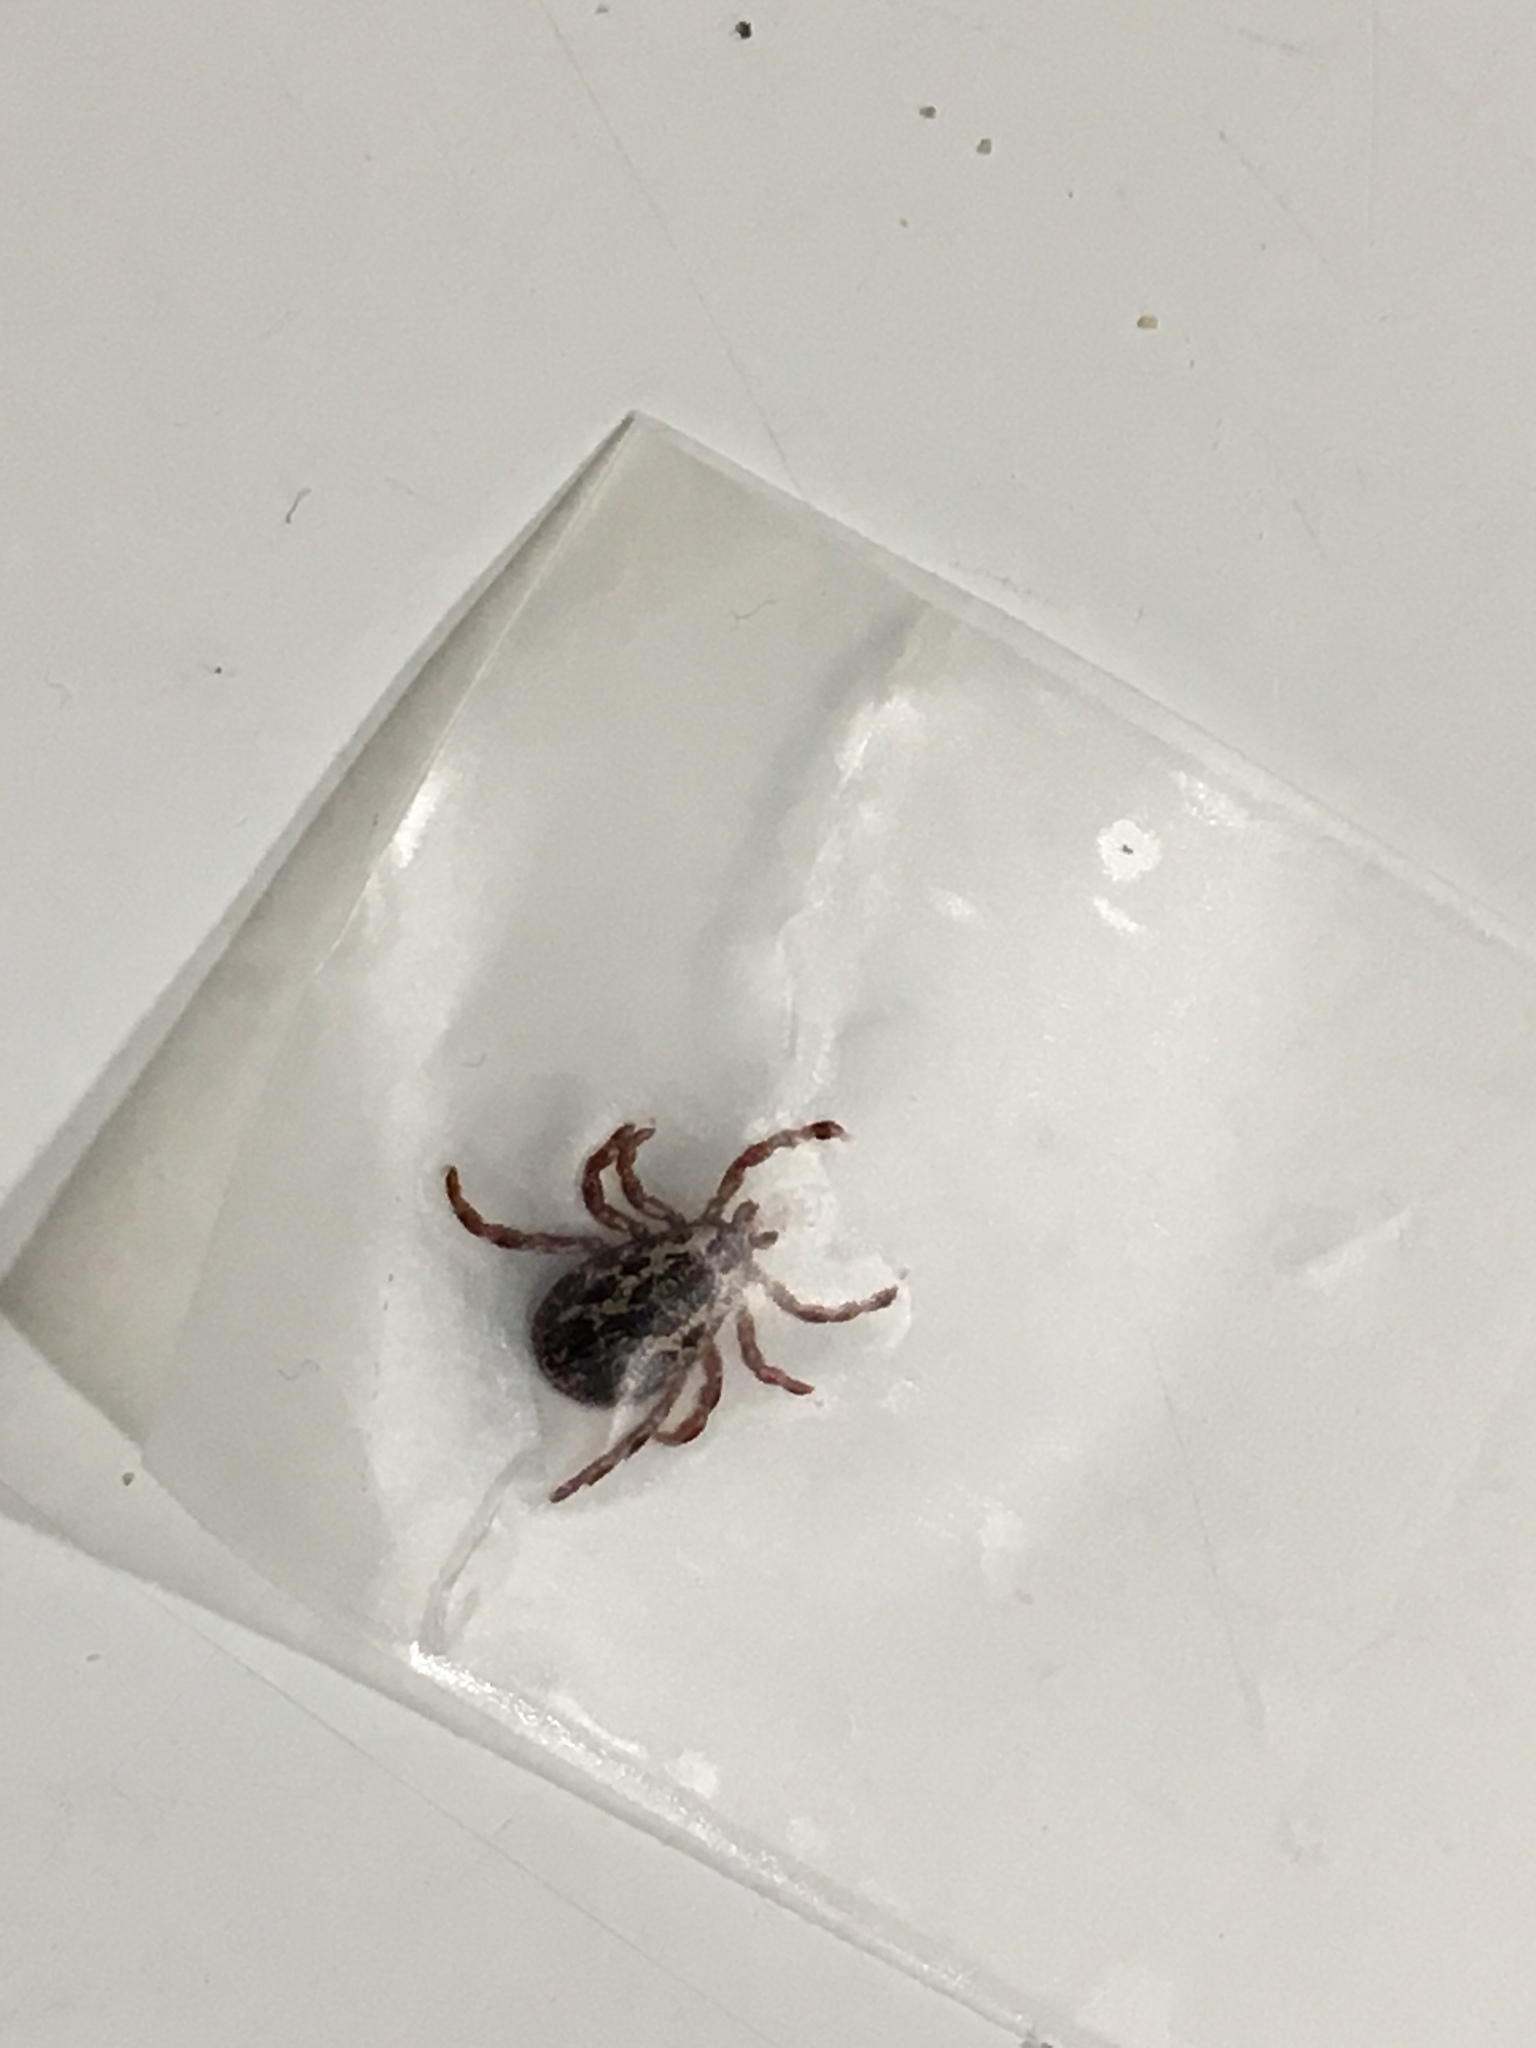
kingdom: Animalia
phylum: Arthropoda
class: Arachnida
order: Ixodida
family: Ixodidae
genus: Dermacentor
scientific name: Dermacentor variabilis
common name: American dog tick
